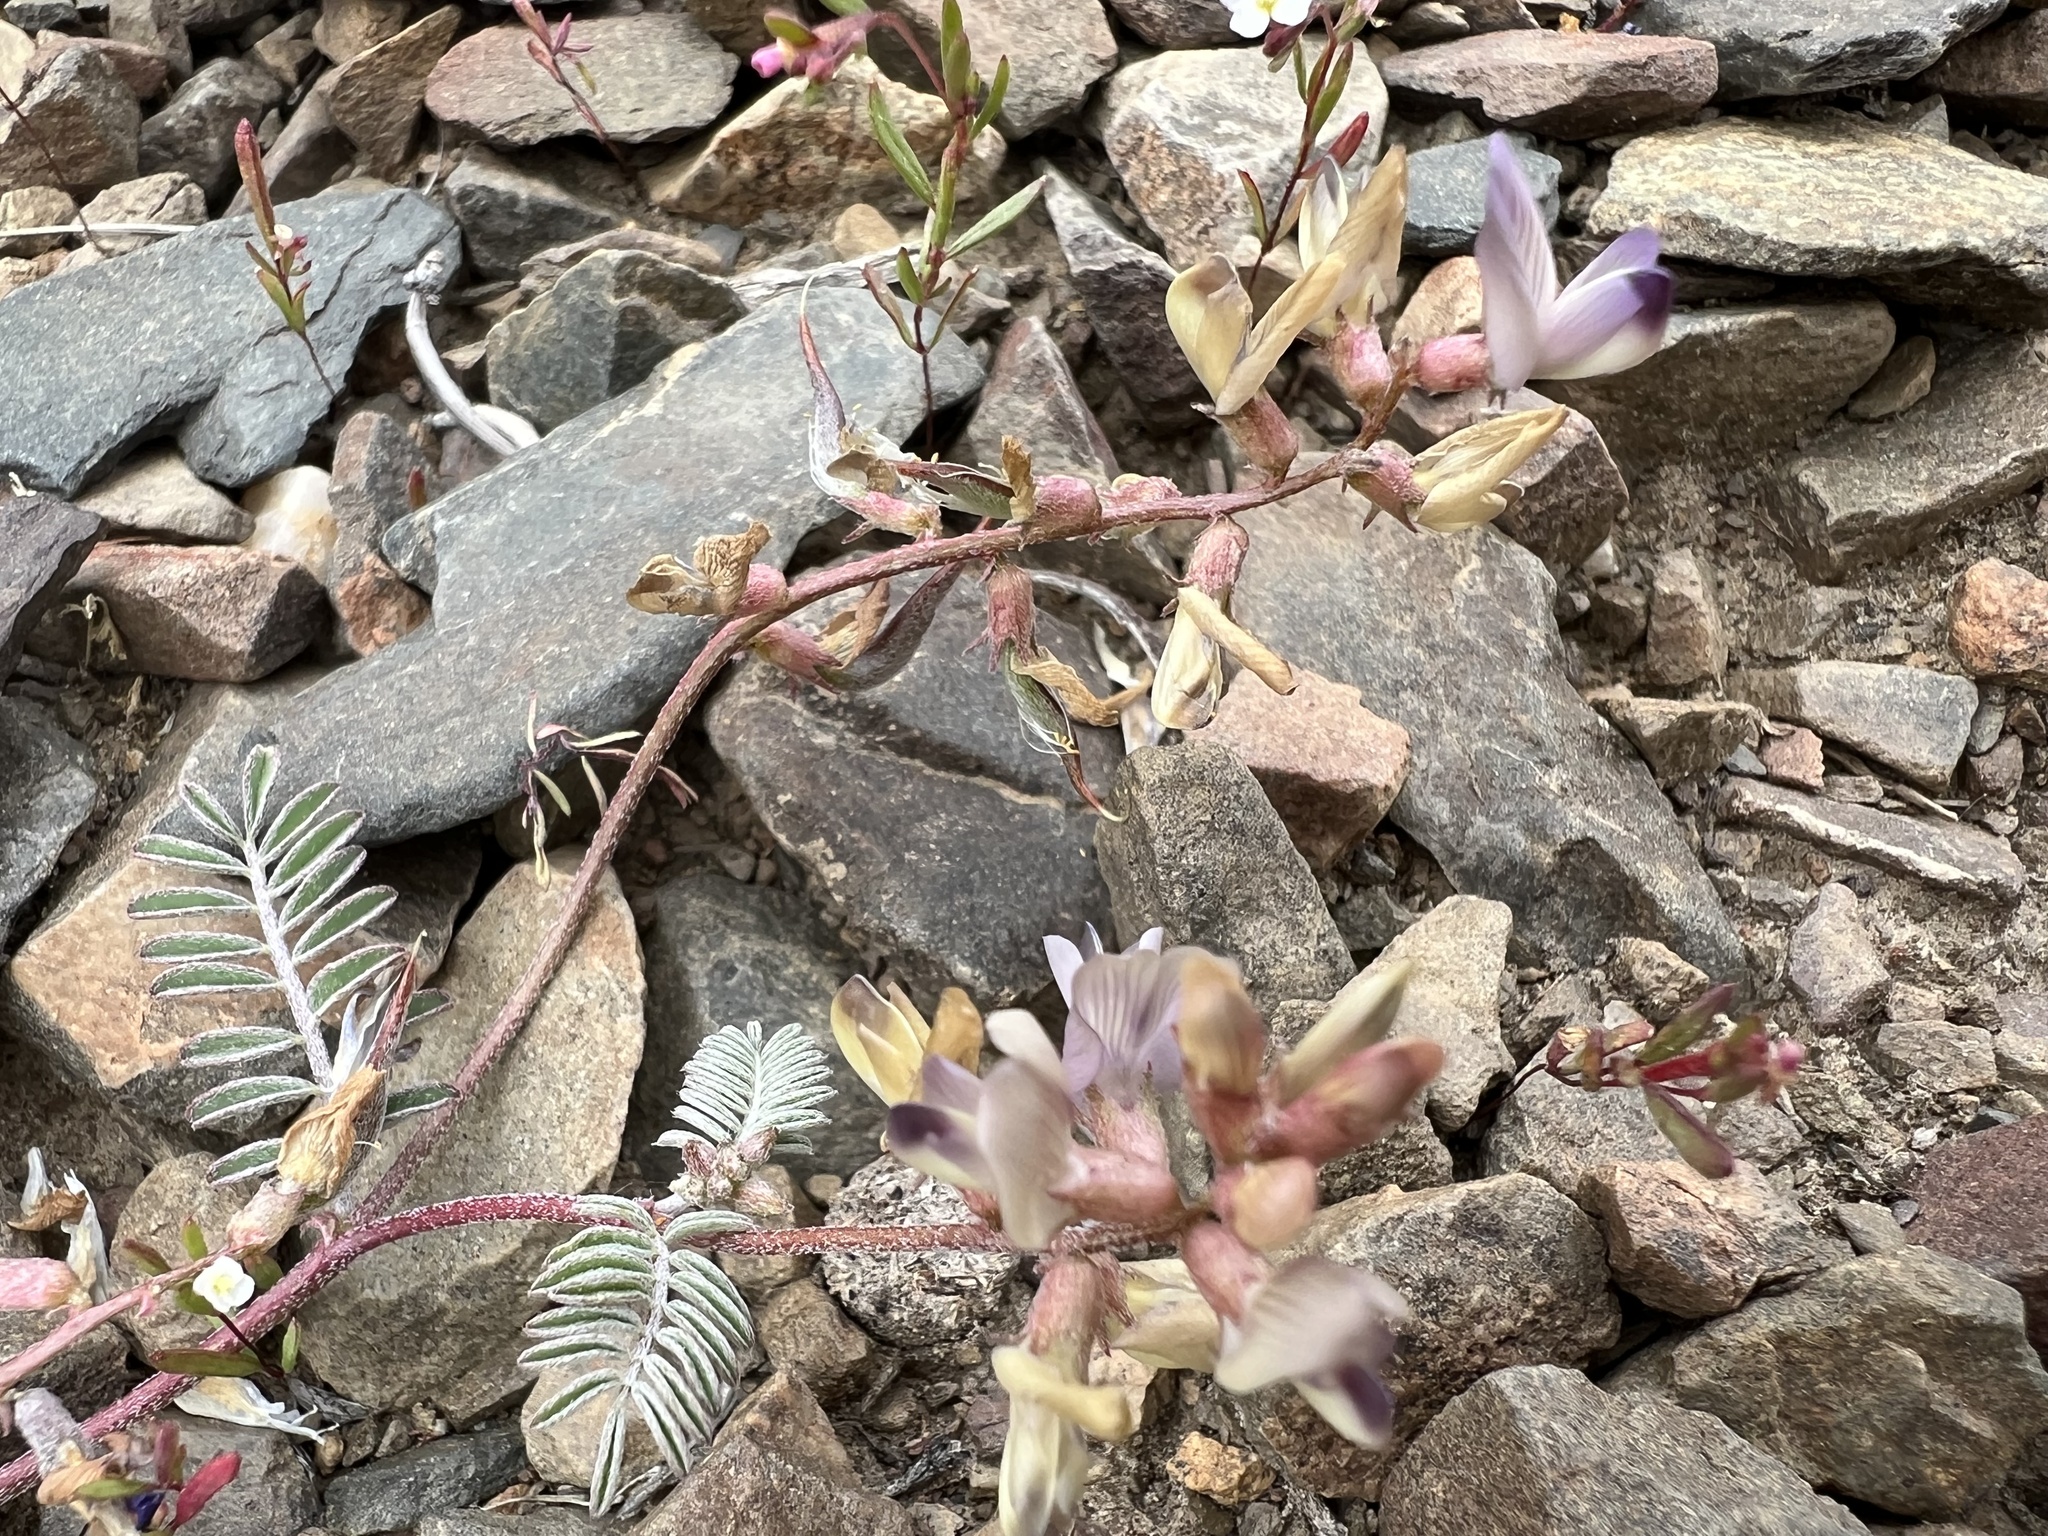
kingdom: Plantae
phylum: Tracheophyta
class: Magnoliopsida
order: Fabales
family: Fabaceae
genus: Astragalus
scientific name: Astragalus inyoensis
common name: Inyo locoweed
